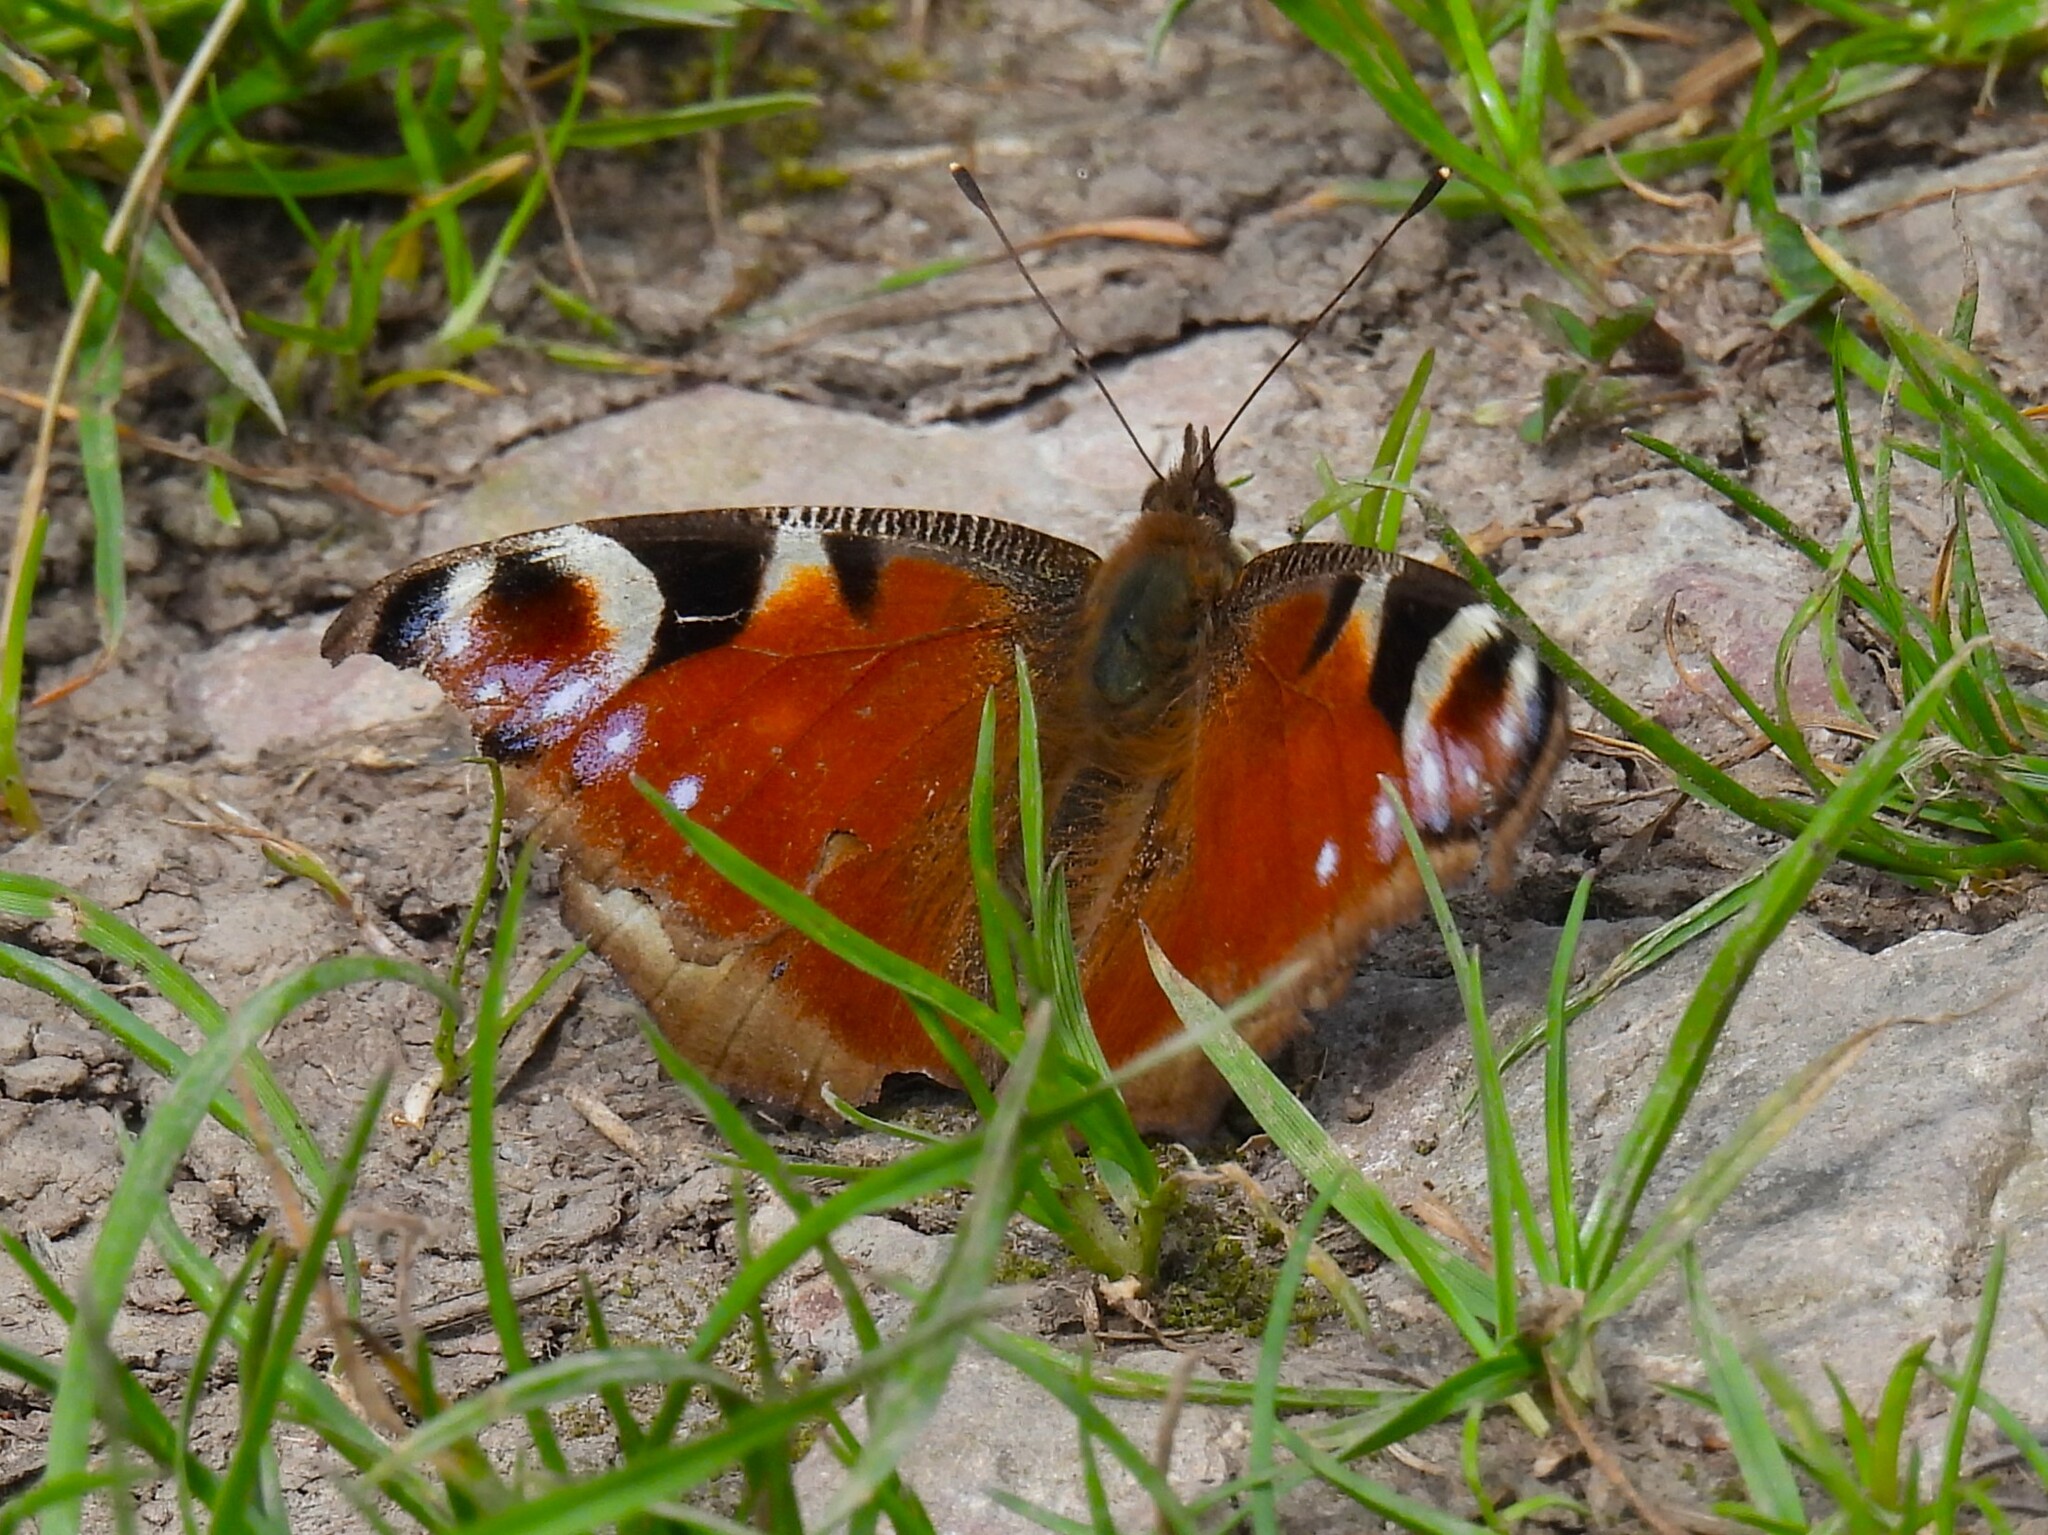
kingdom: Animalia
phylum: Arthropoda
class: Insecta
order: Lepidoptera
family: Nymphalidae
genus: Aglais
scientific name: Aglais io
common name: Peacock
